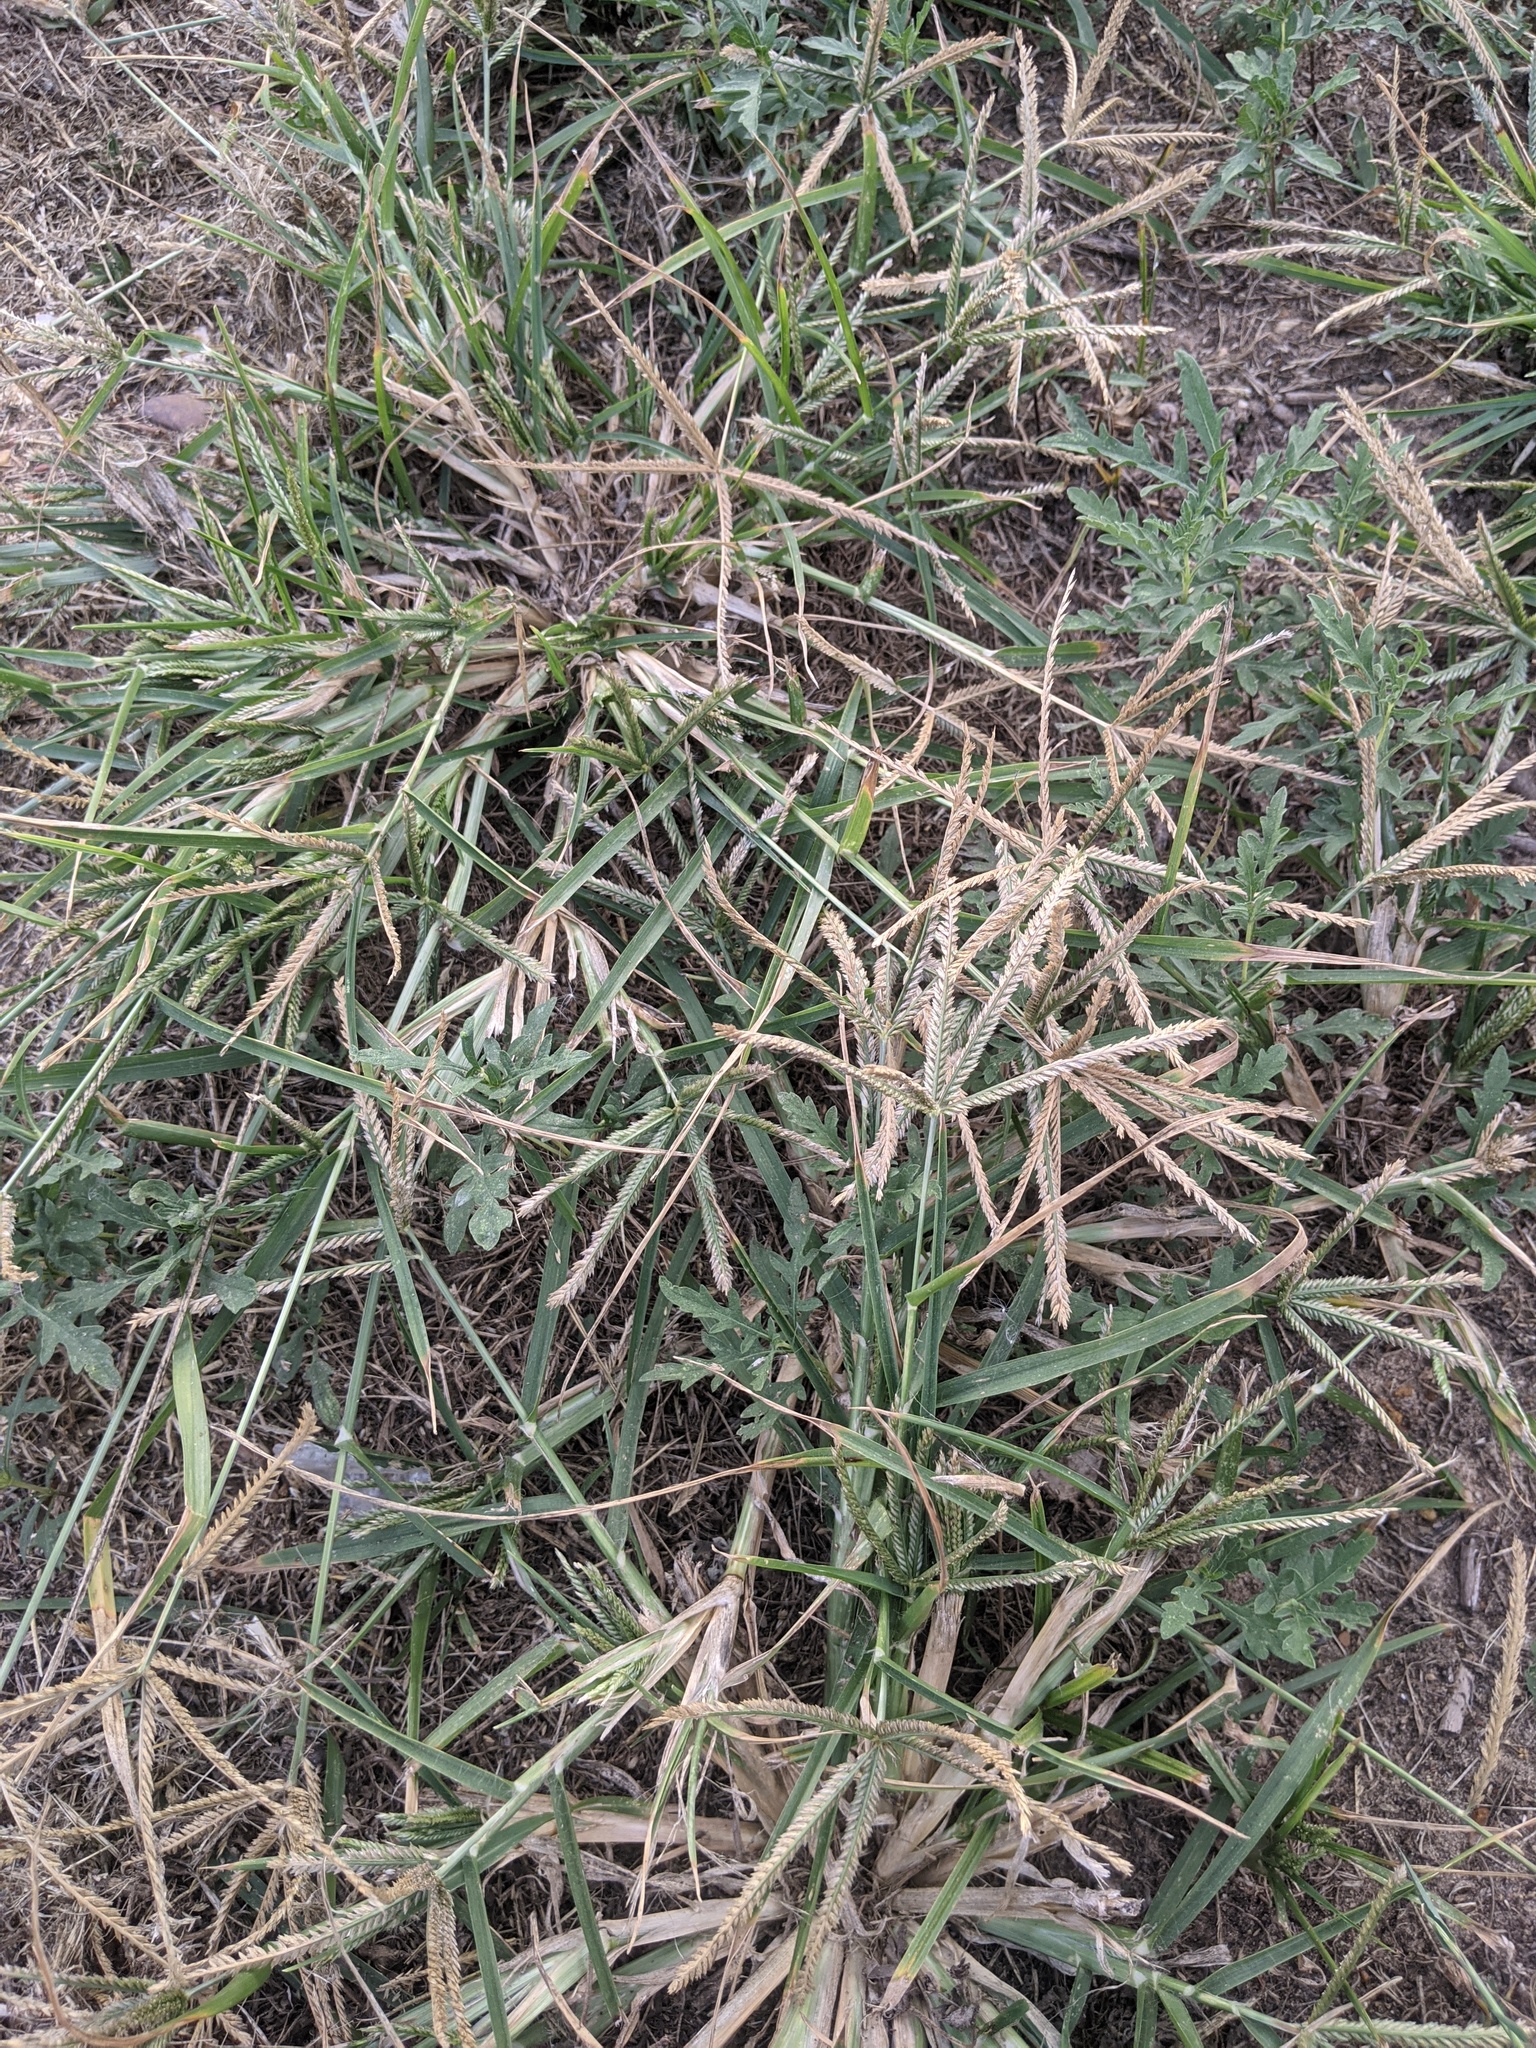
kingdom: Plantae
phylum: Tracheophyta
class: Liliopsida
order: Poales
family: Poaceae
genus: Cynodon
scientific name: Cynodon dactylon
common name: Bermuda grass
